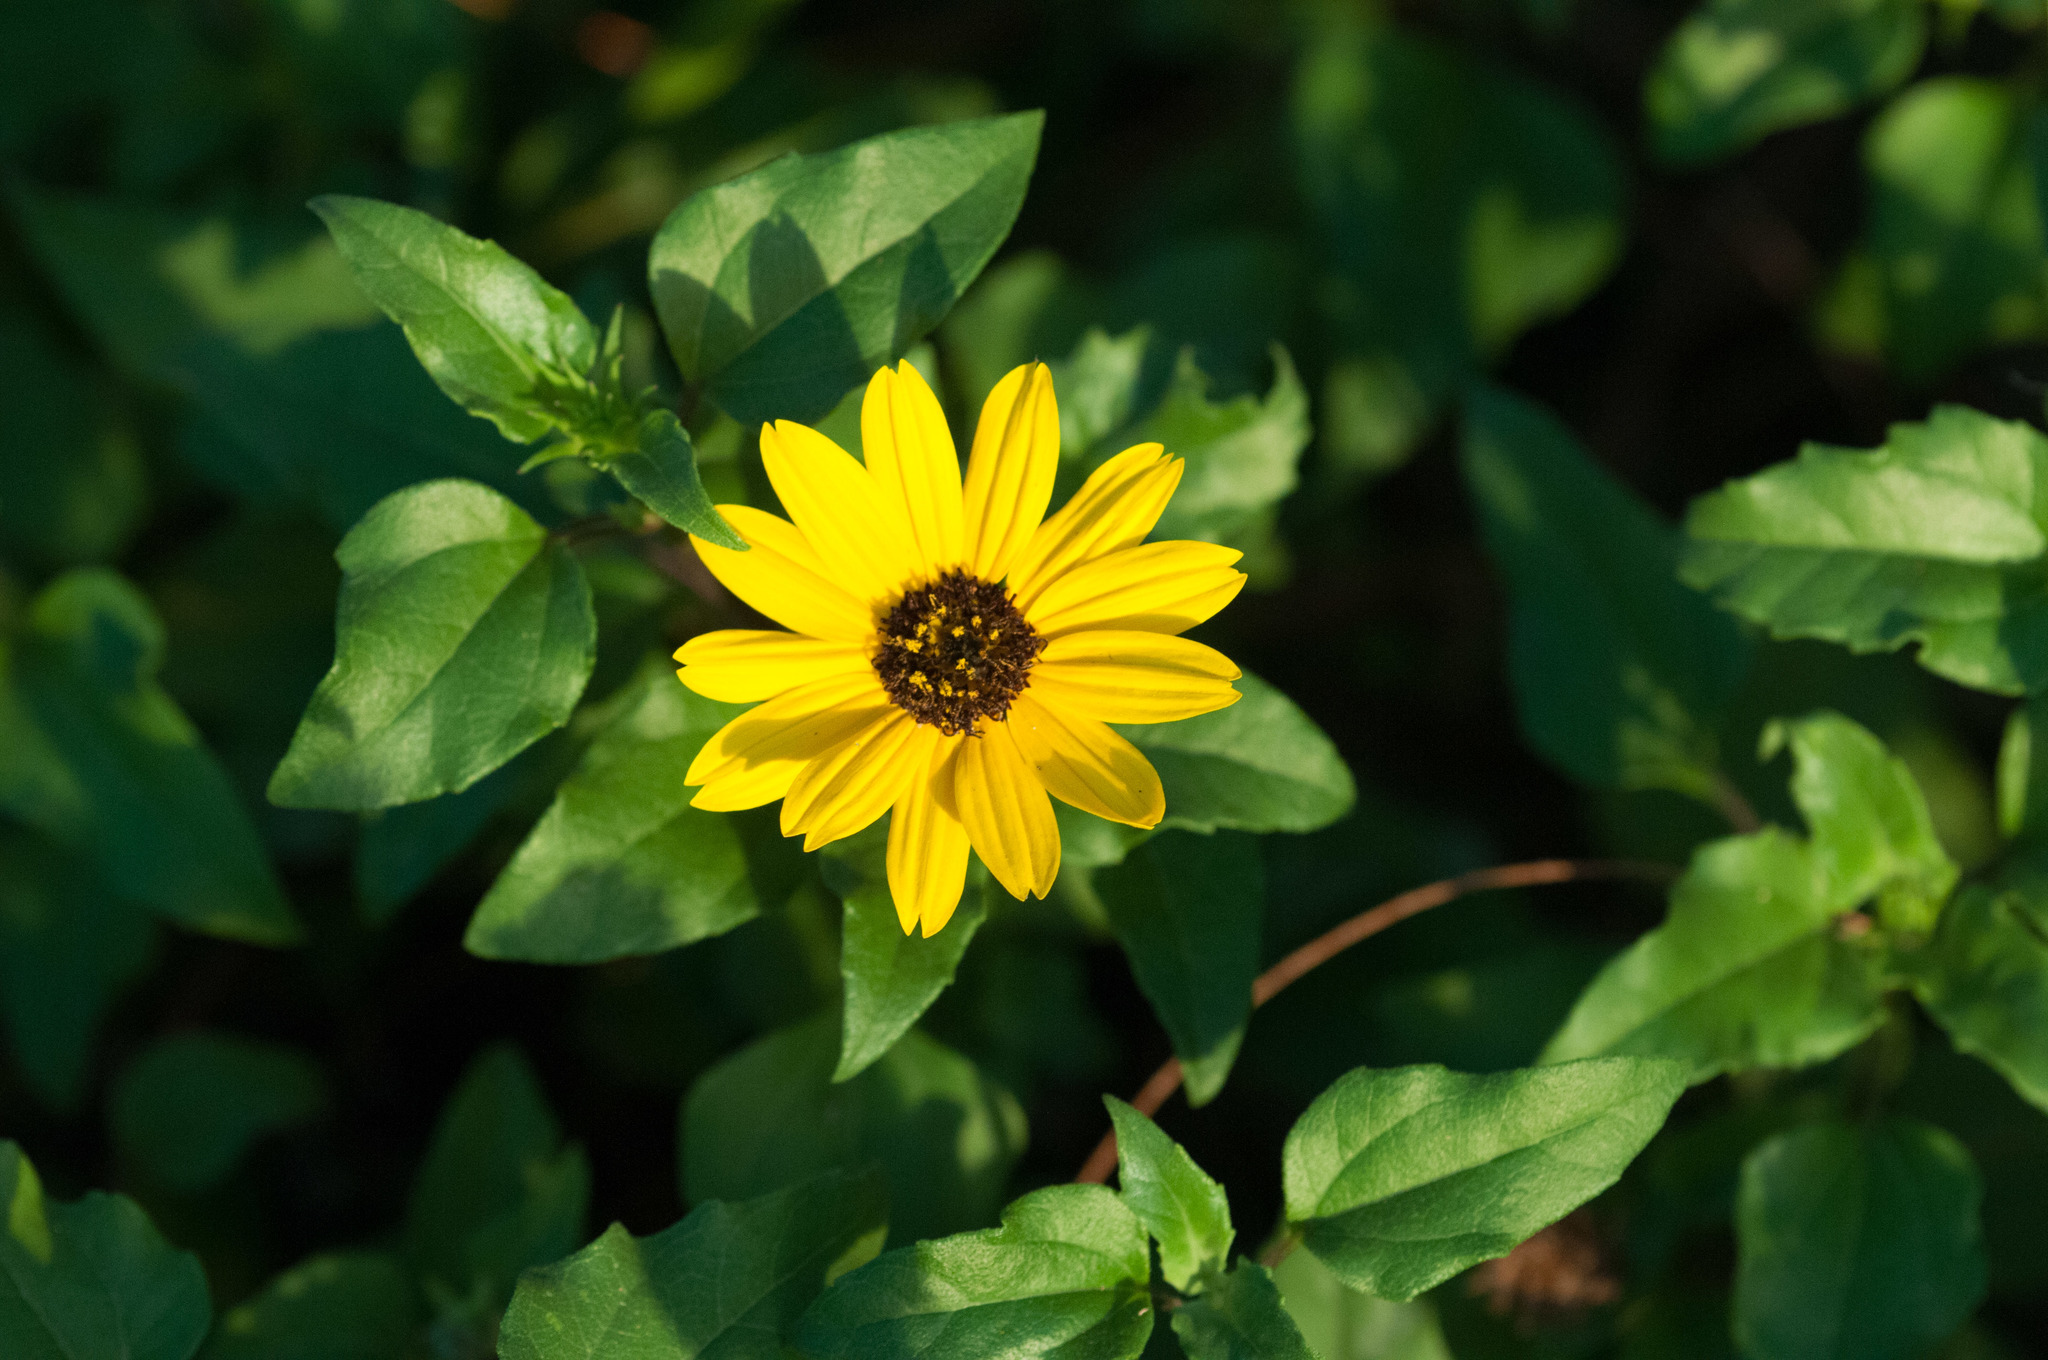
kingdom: Plantae
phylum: Tracheophyta
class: Magnoliopsida
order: Asterales
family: Asteraceae
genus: Helianthus
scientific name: Helianthus debilis
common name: Weak sunflower
